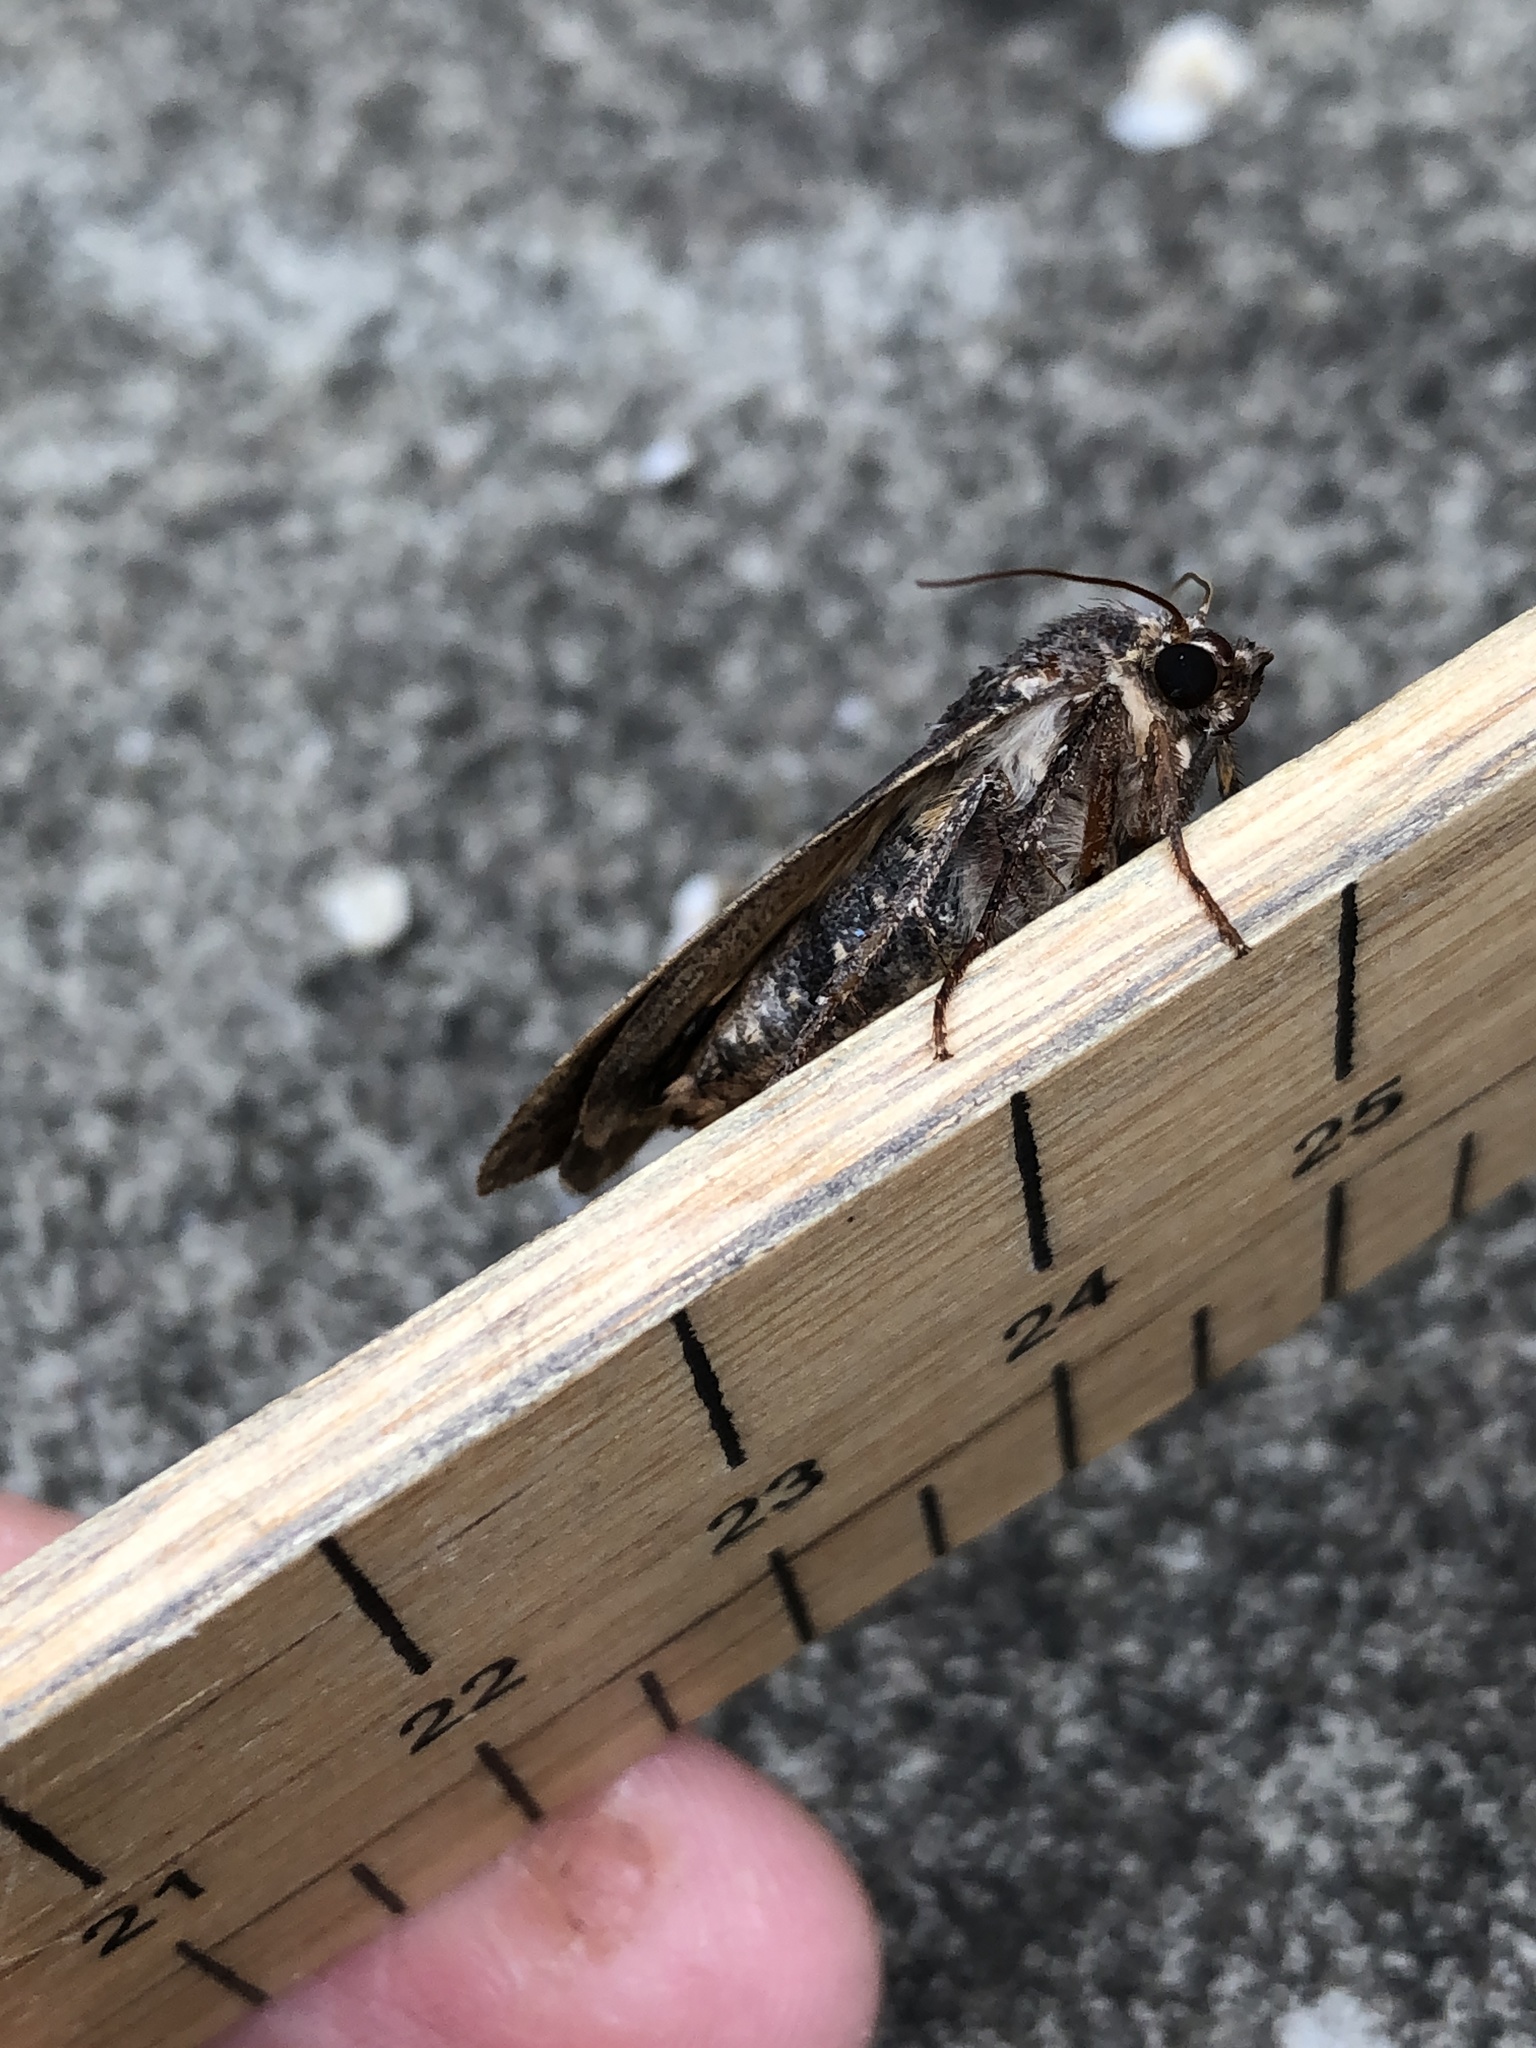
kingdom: Animalia
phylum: Arthropoda
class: Insecta
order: Lepidoptera
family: Noctuidae
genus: Noctua
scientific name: Noctua pronuba
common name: Large yellow underwing
